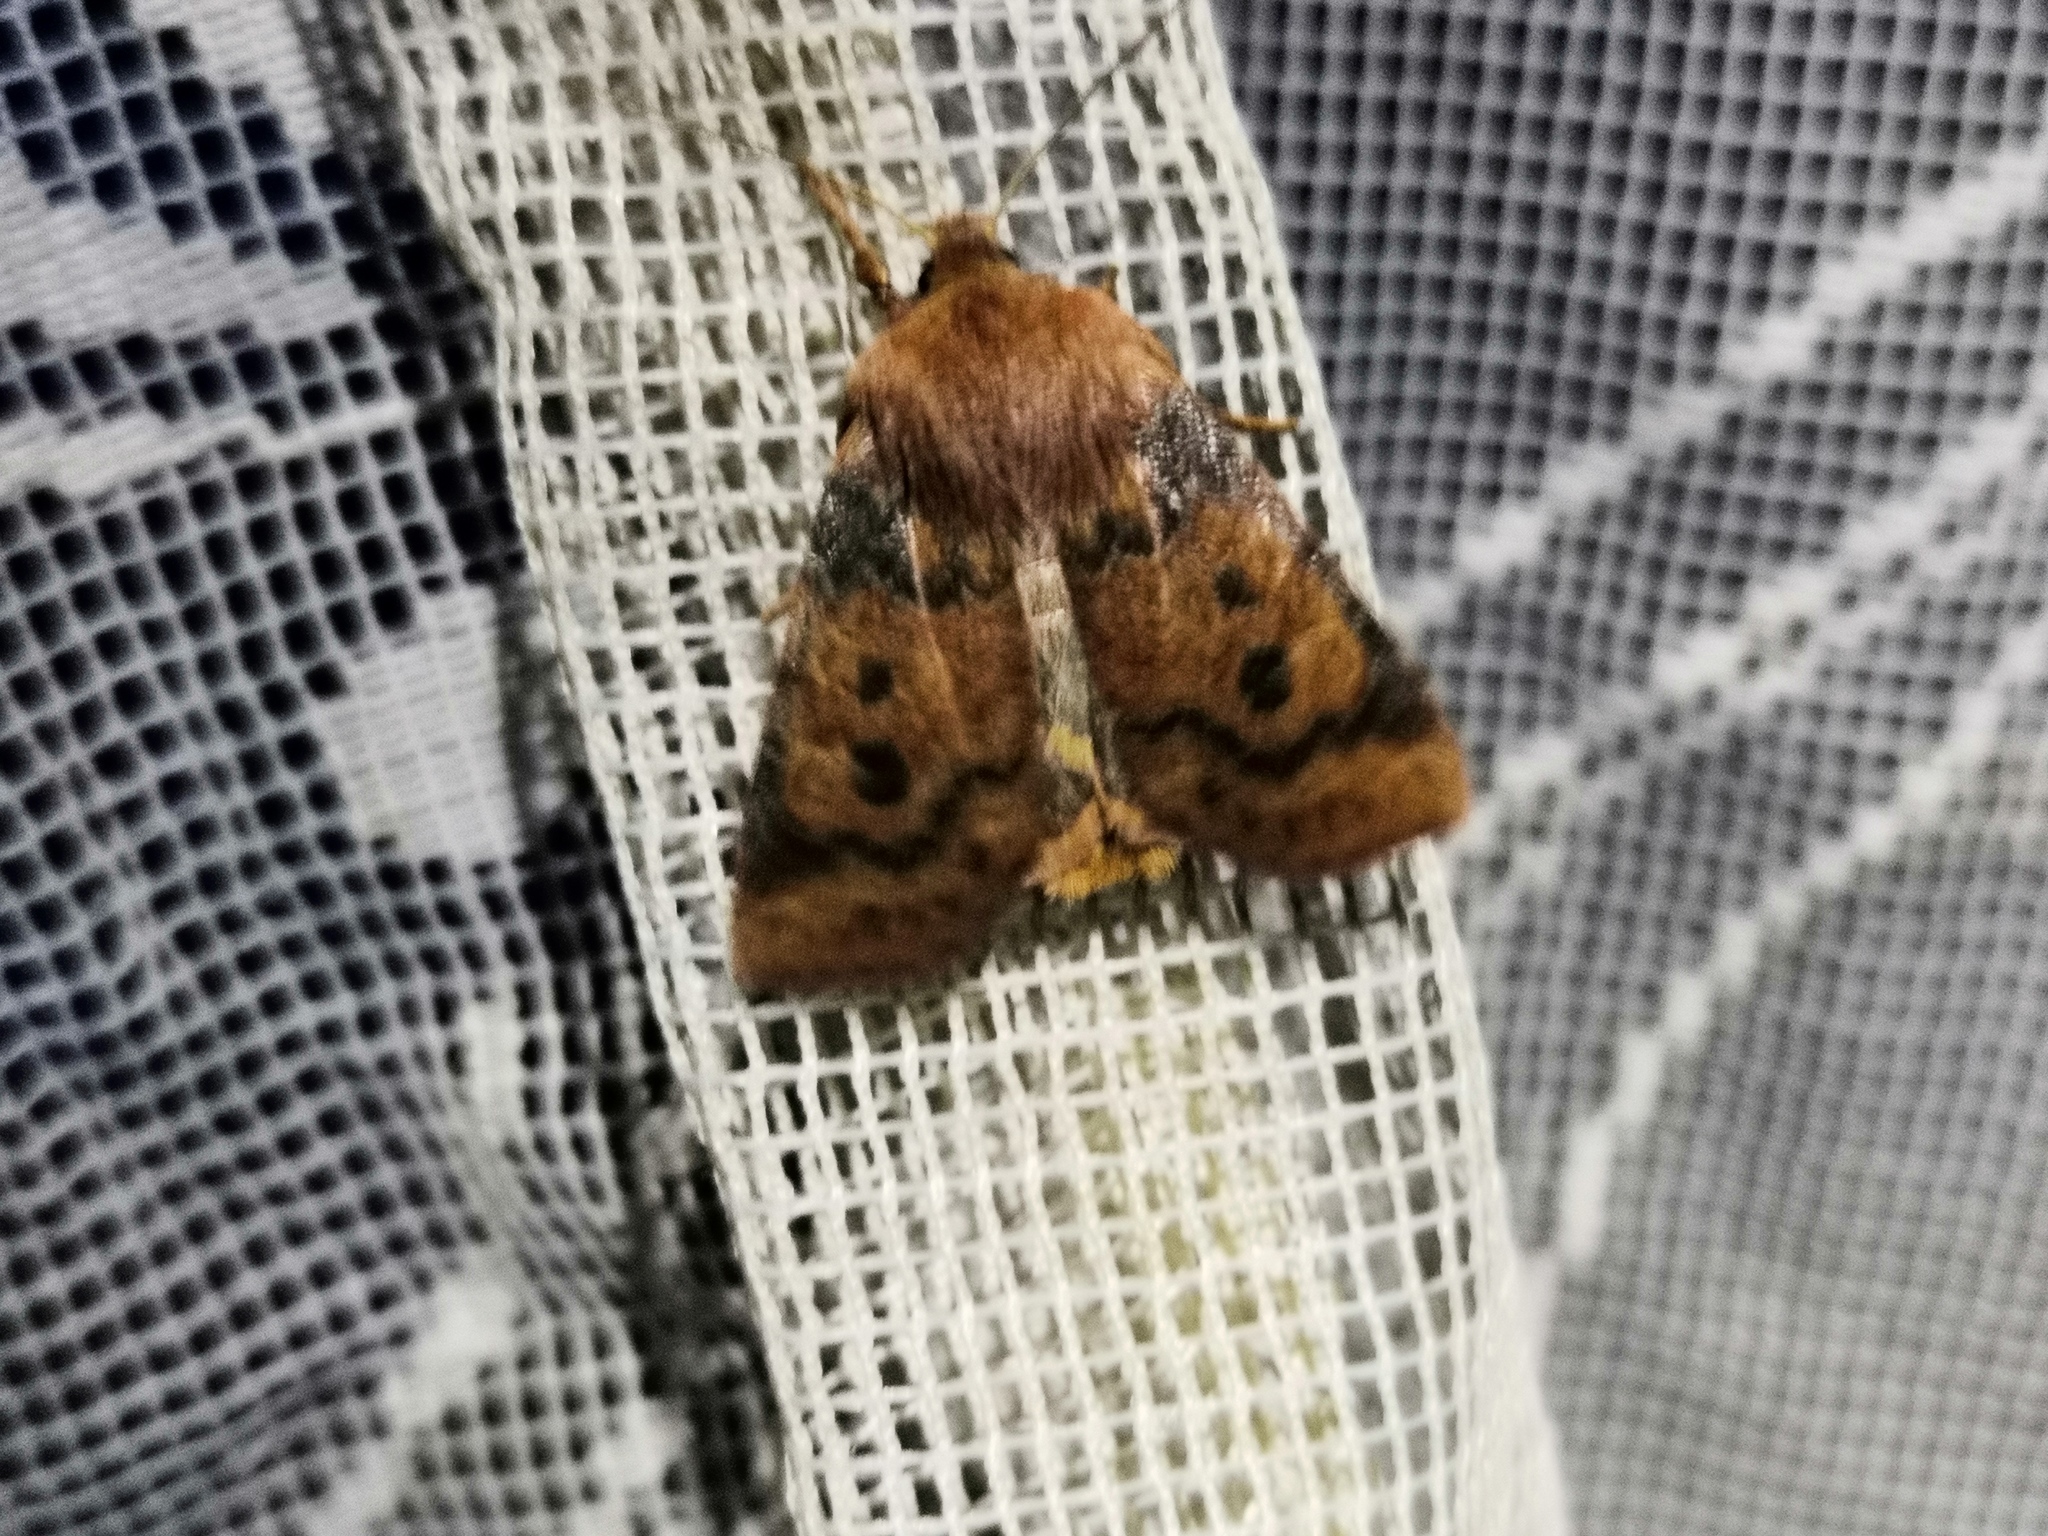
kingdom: Animalia
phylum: Arthropoda
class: Insecta
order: Lepidoptera
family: Noctuidae
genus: Conistra
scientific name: Conistra vaccinii
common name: Chestnut
